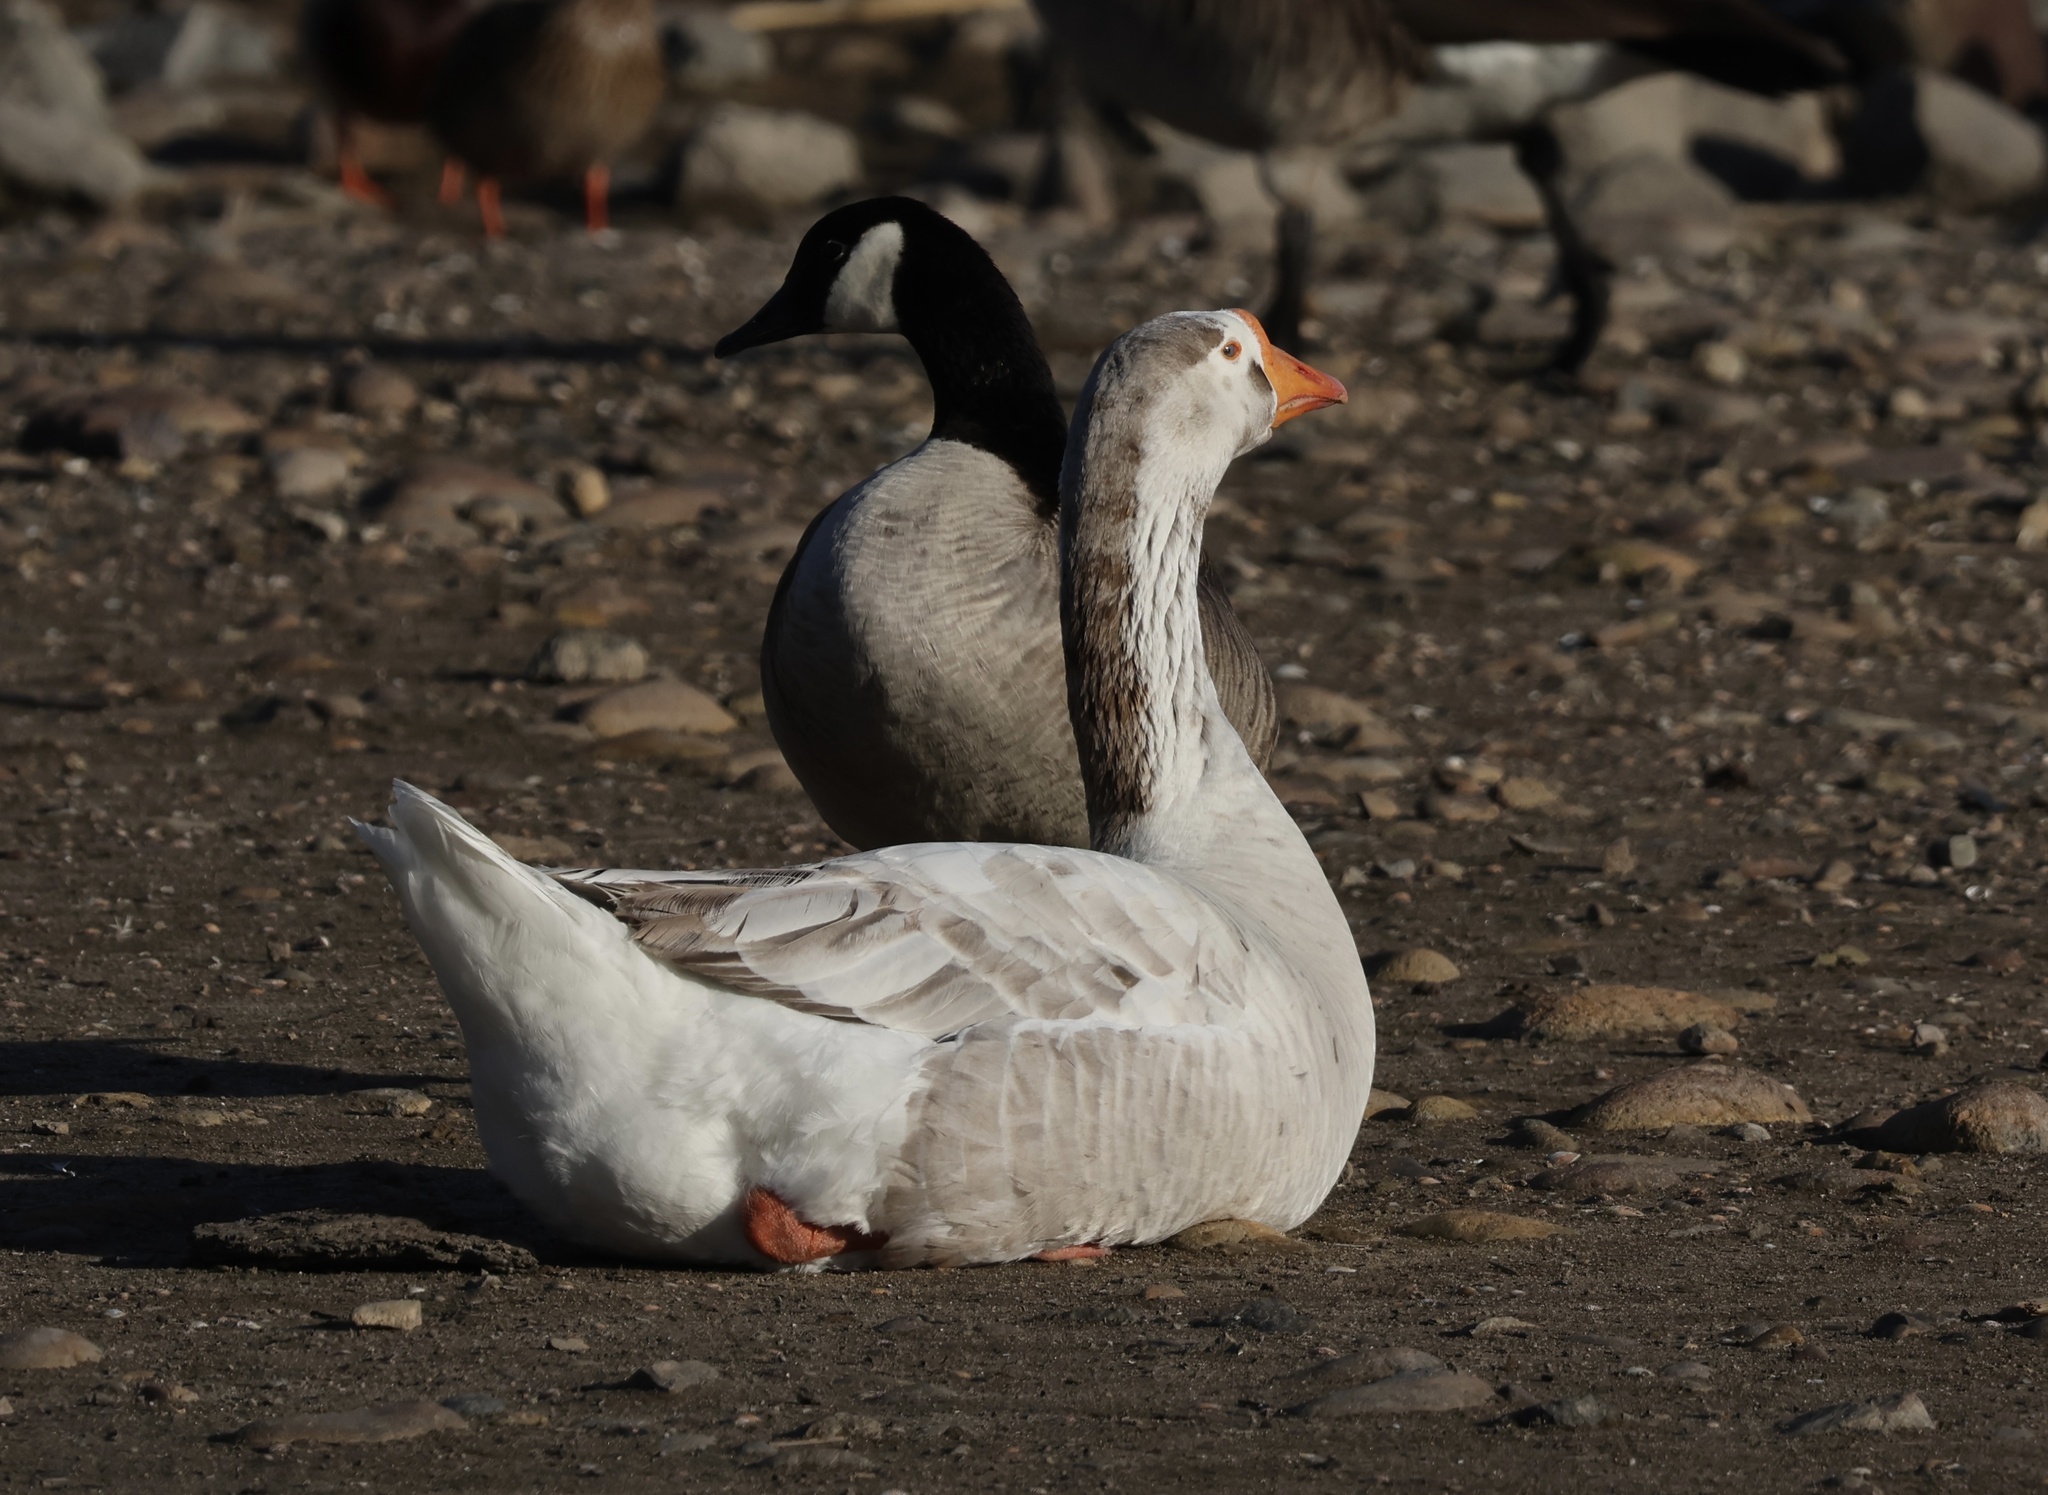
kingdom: Animalia
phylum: Chordata
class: Aves
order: Anseriformes
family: Anatidae
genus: Anser
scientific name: Anser
